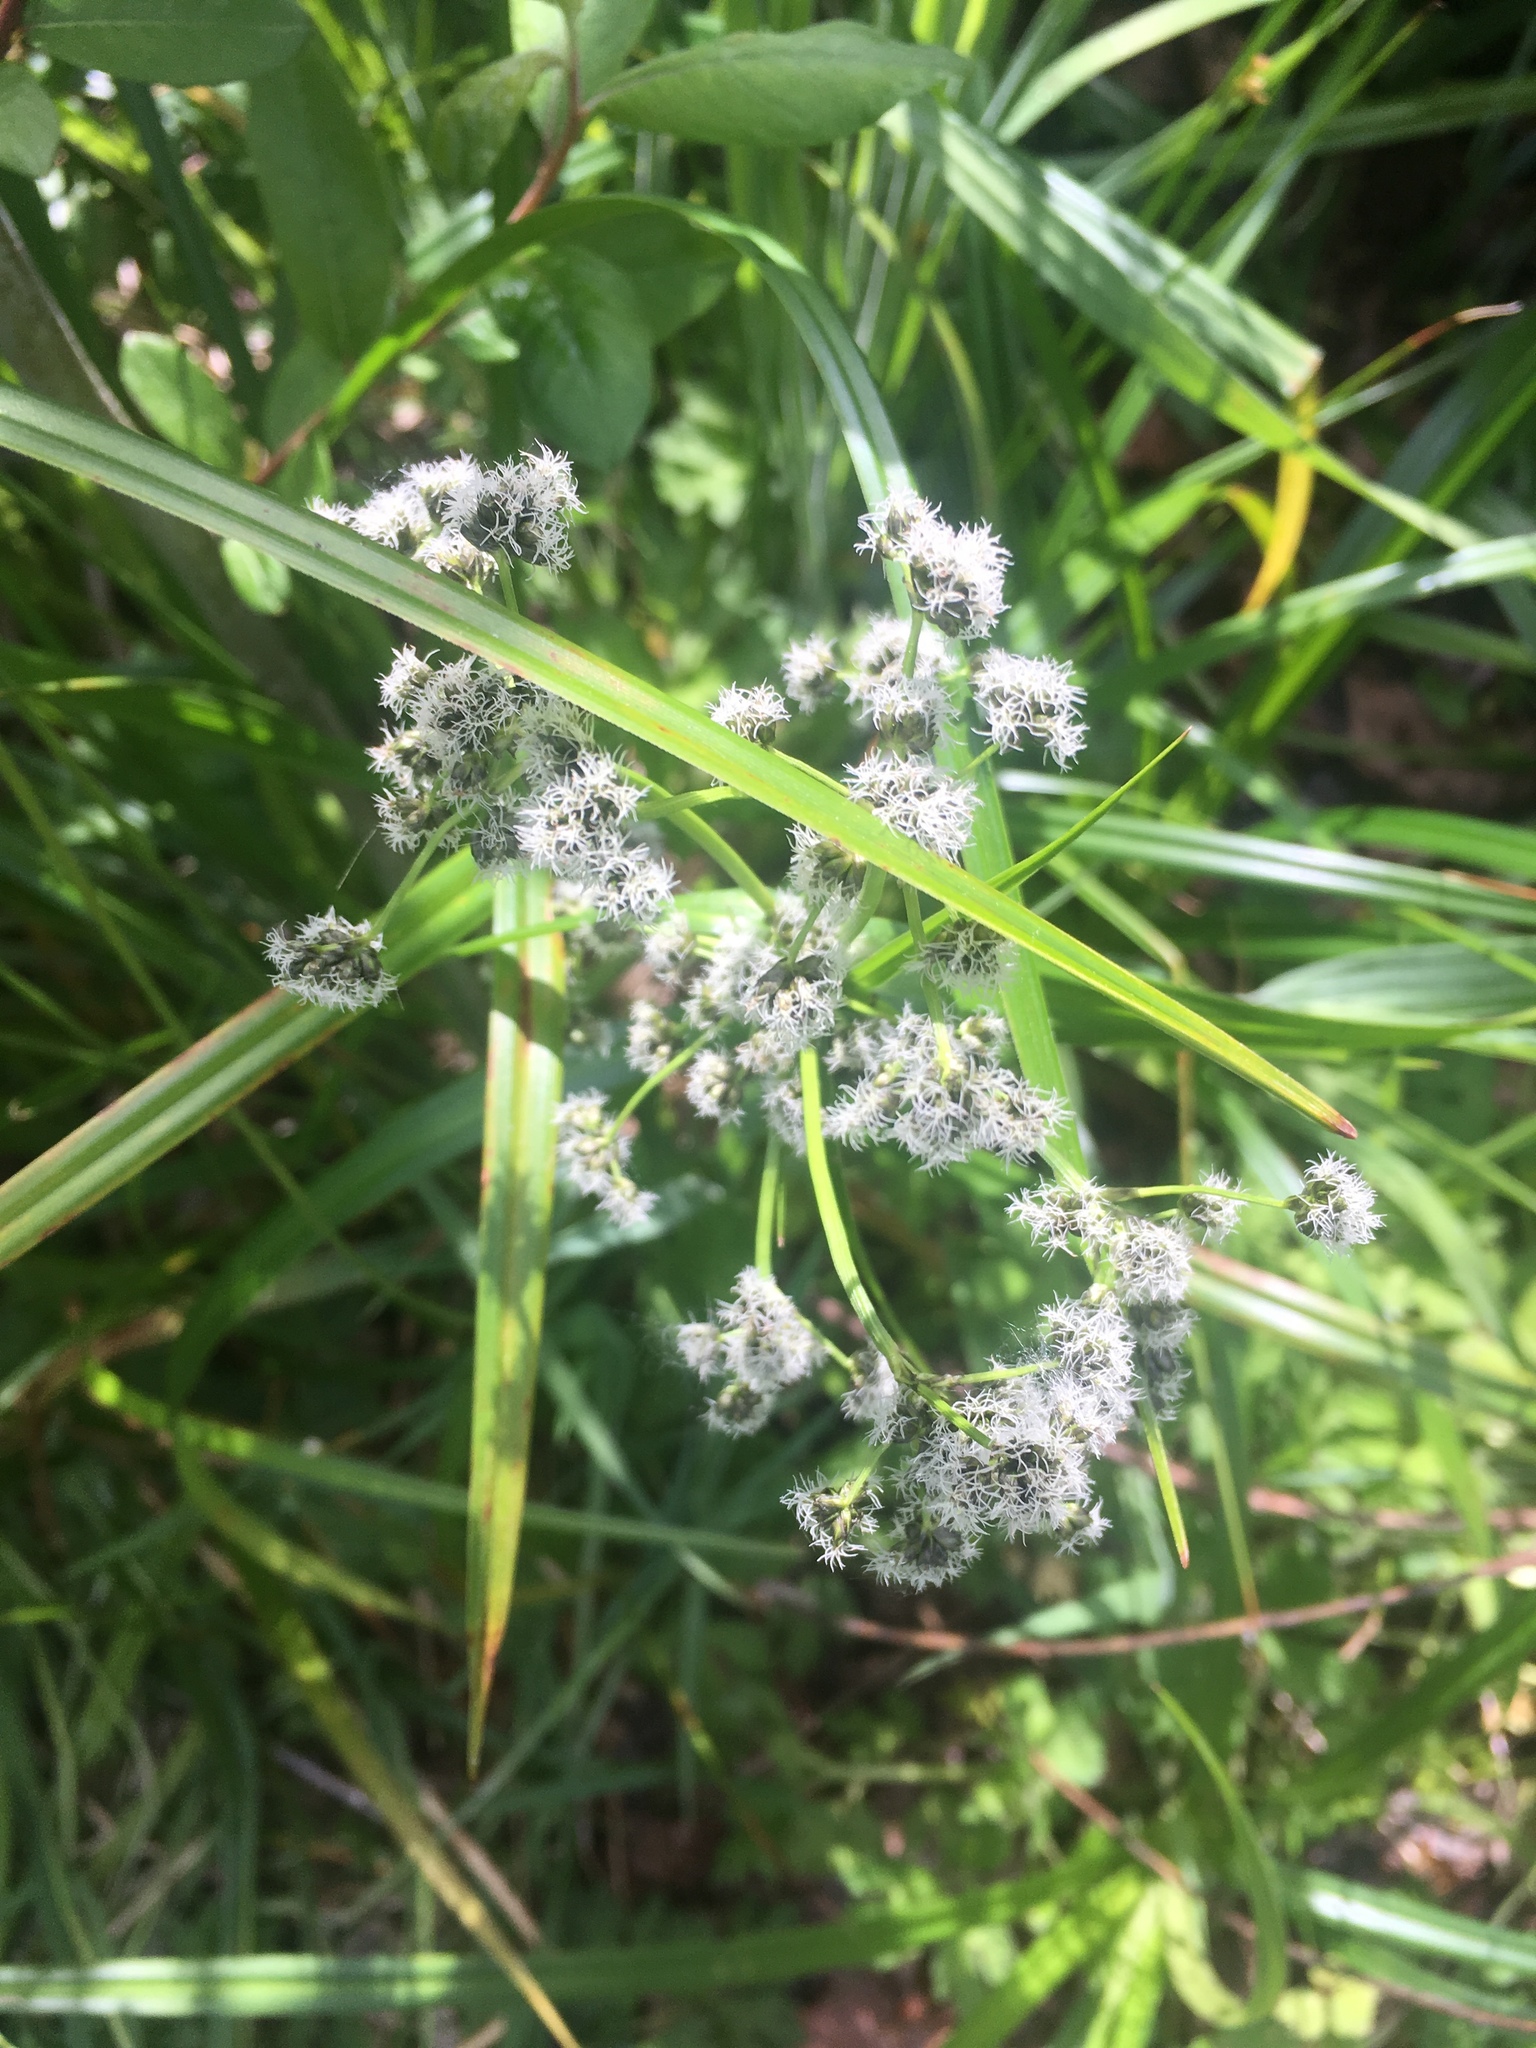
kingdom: Plantae
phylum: Tracheophyta
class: Liliopsida
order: Poales
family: Cyperaceae
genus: Scirpus
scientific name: Scirpus microcarpus
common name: Panicled bulrush
